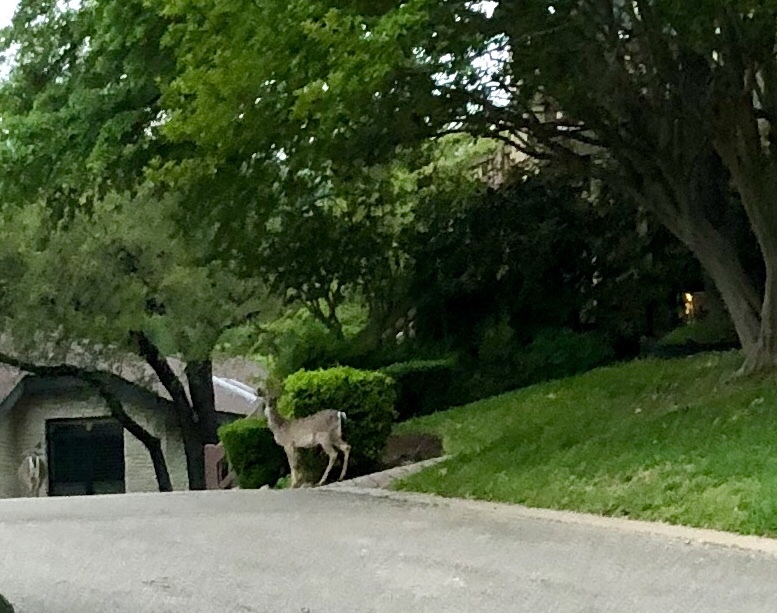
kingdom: Animalia
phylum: Chordata
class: Mammalia
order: Artiodactyla
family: Cervidae
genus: Odocoileus
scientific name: Odocoileus virginianus
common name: White-tailed deer
